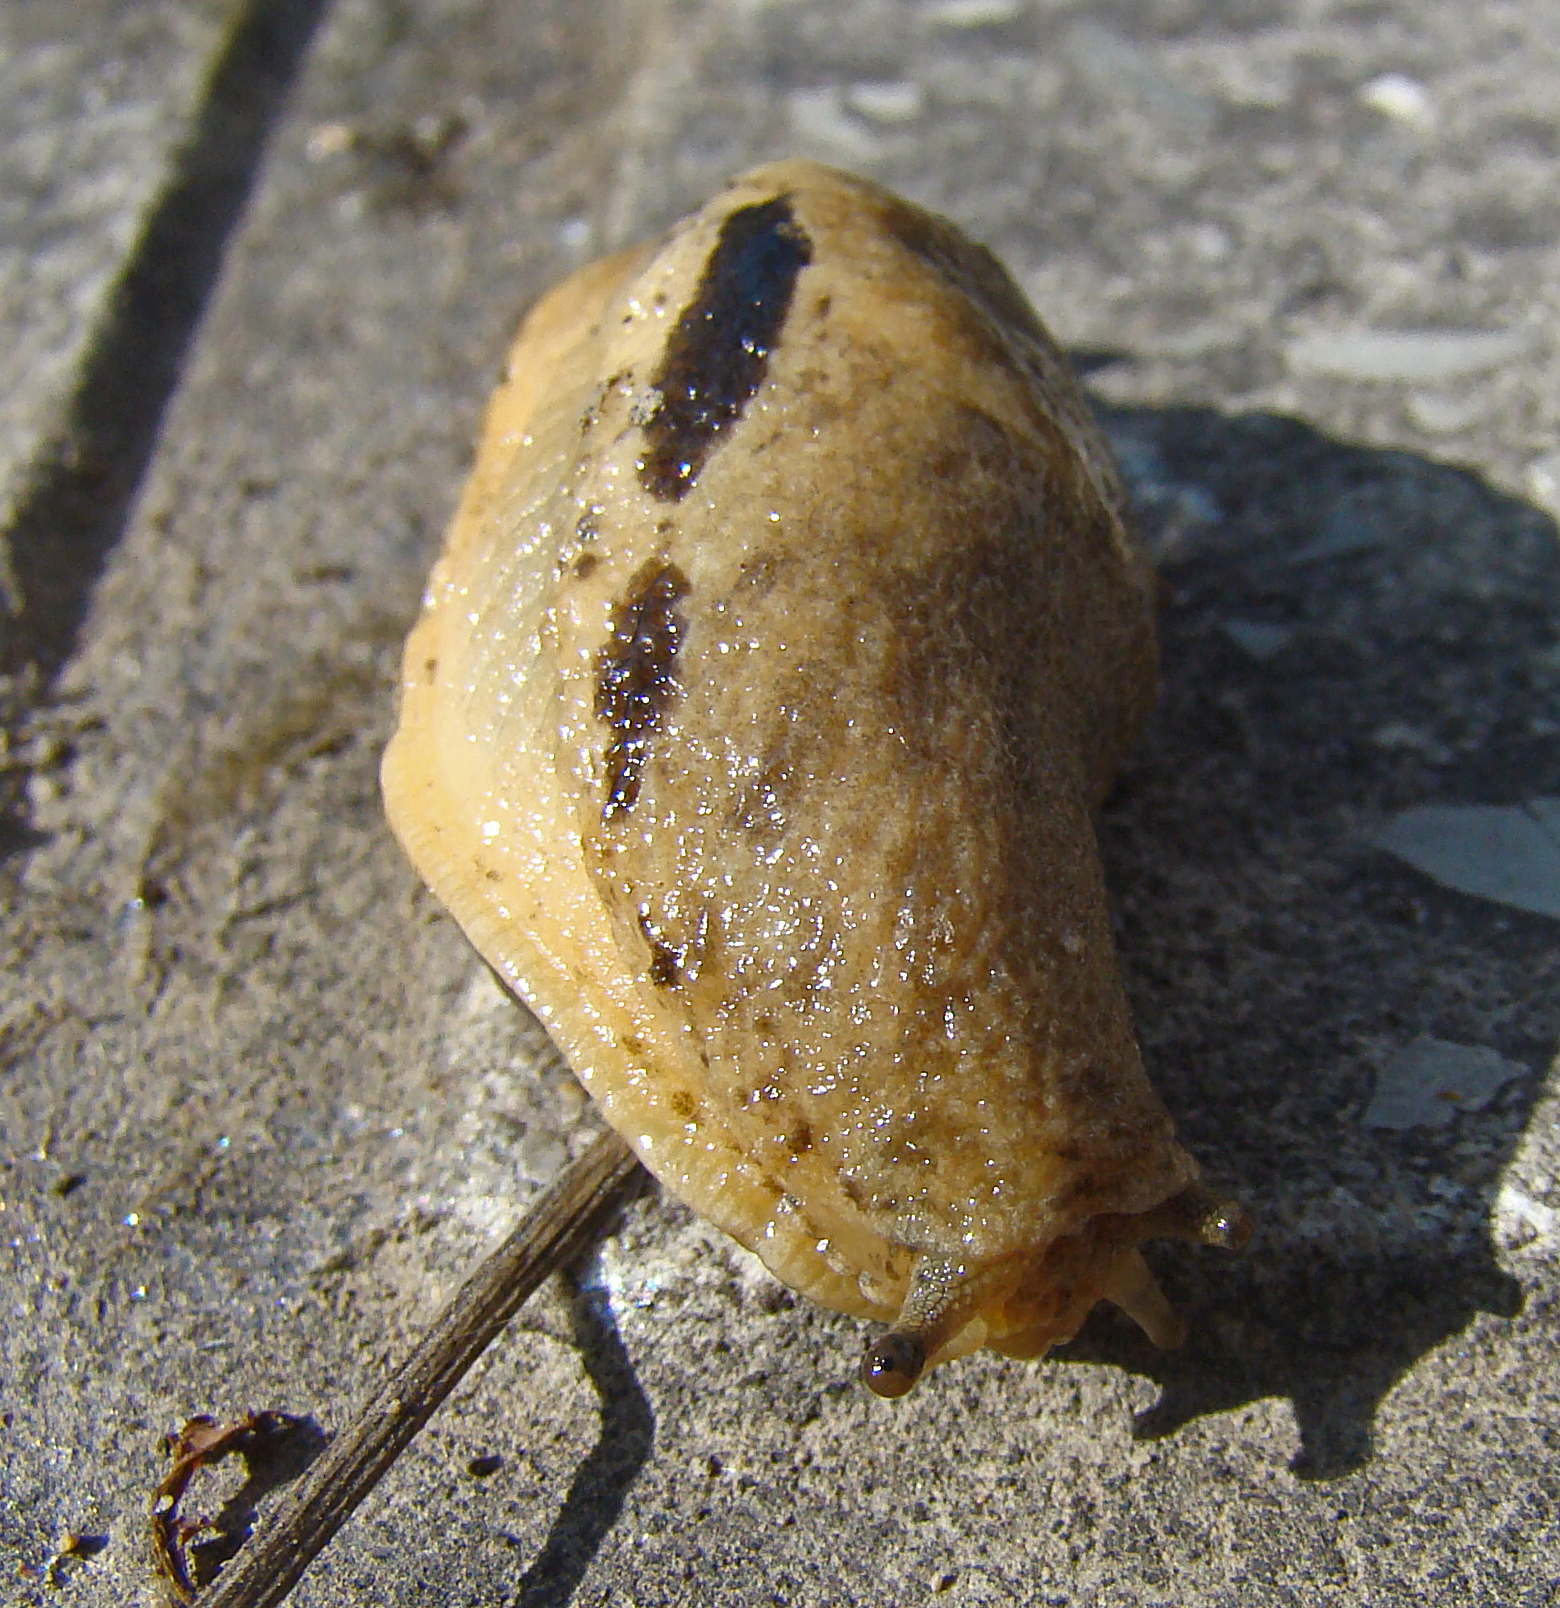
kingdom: Animalia
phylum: Mollusca
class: Gastropoda
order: Stylommatophora
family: Parmacellidae
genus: Drusia
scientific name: Drusia ibera
